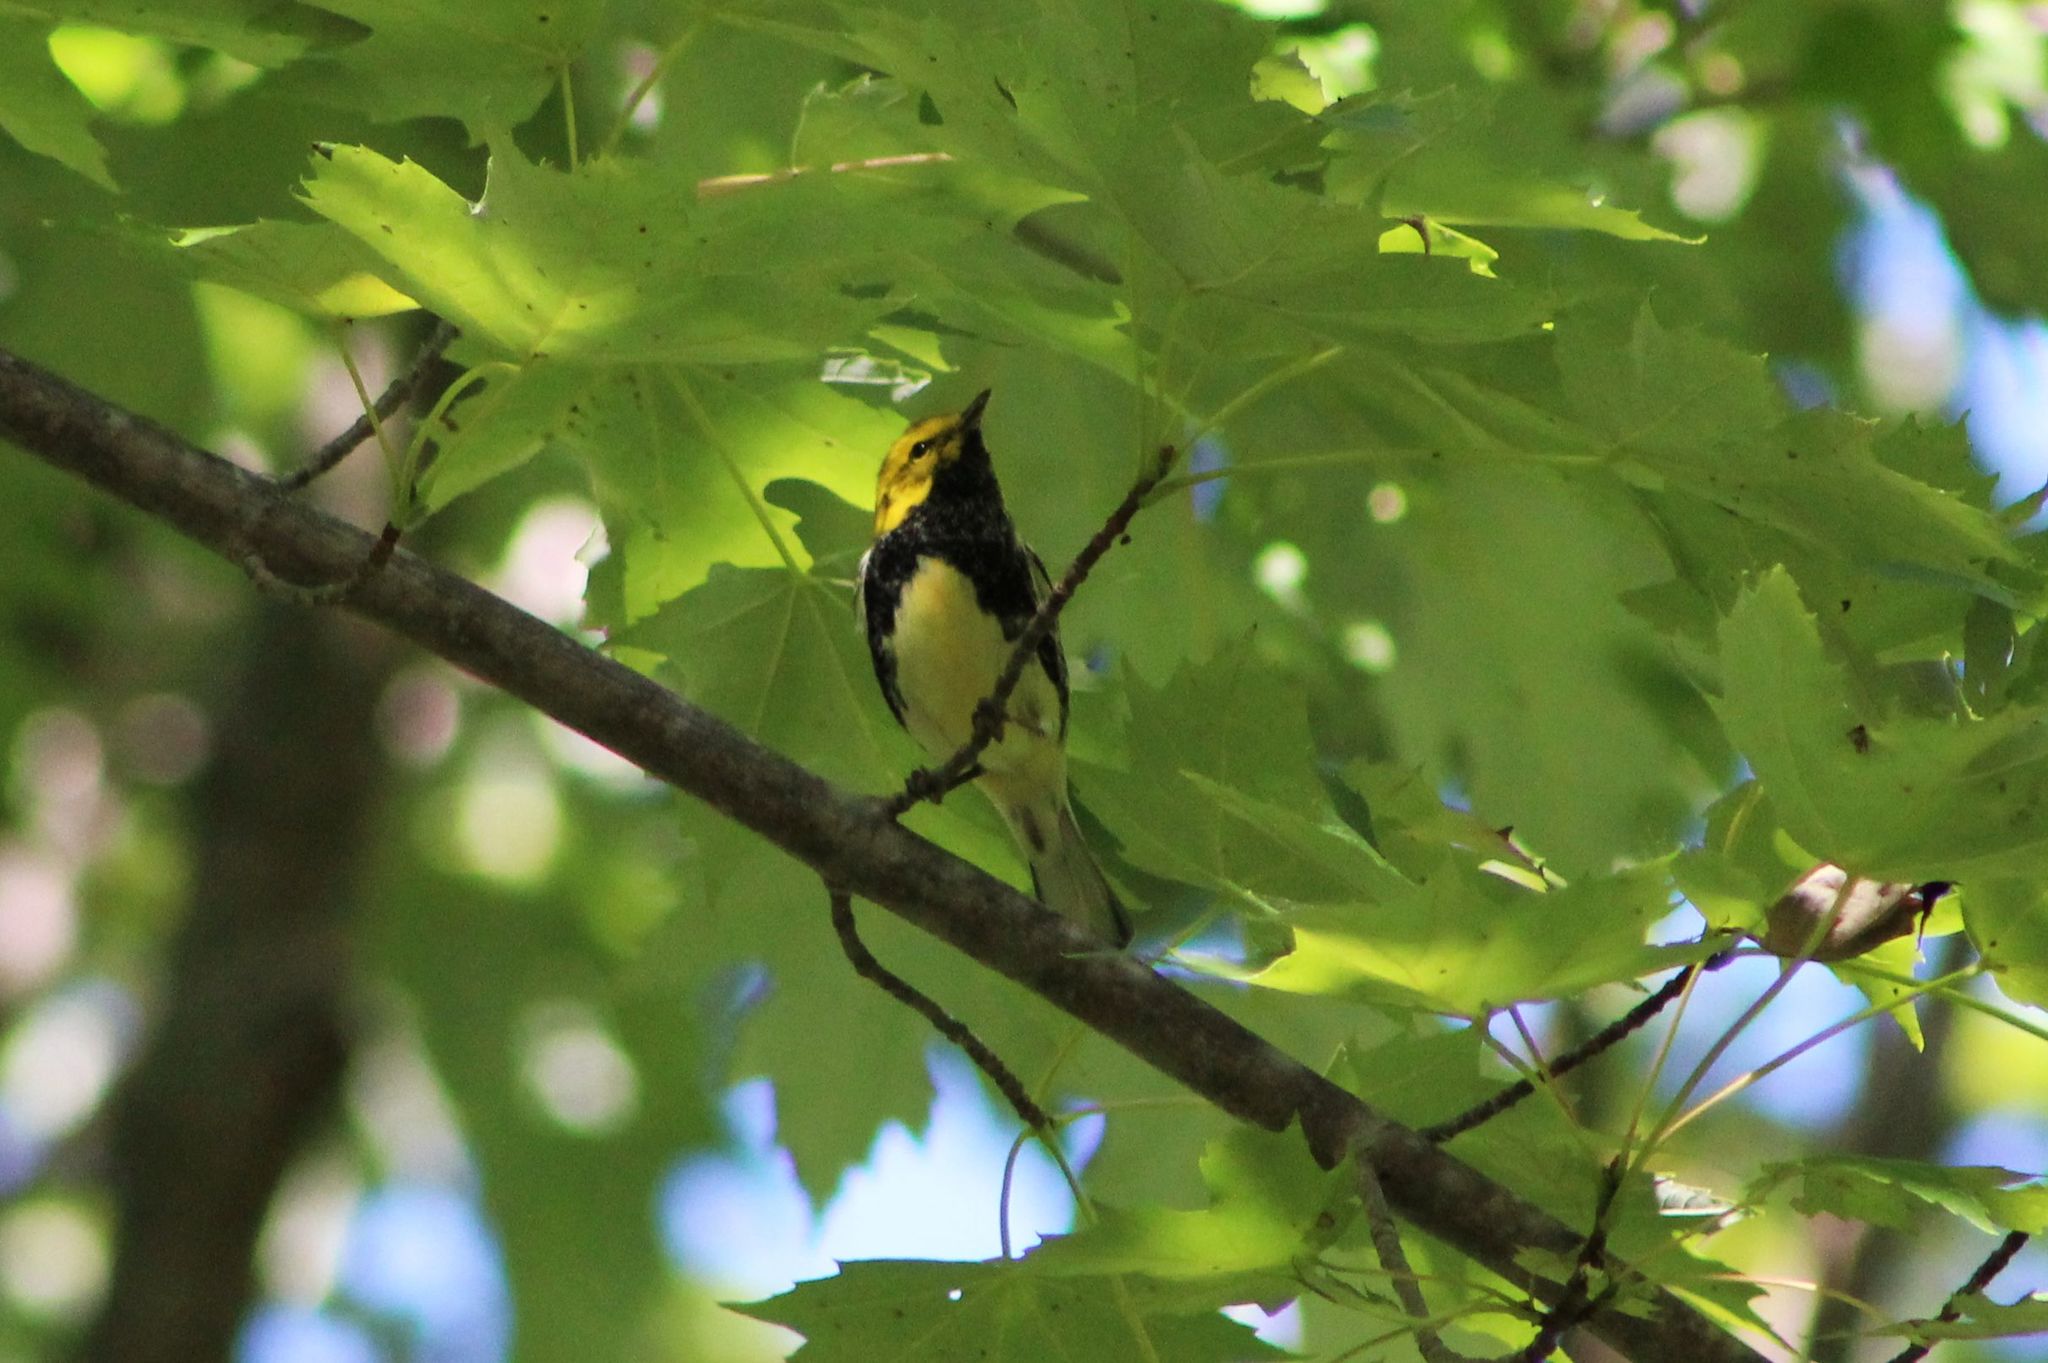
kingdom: Animalia
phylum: Chordata
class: Aves
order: Passeriformes
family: Parulidae
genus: Setophaga
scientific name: Setophaga virens
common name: Black-throated green warbler
